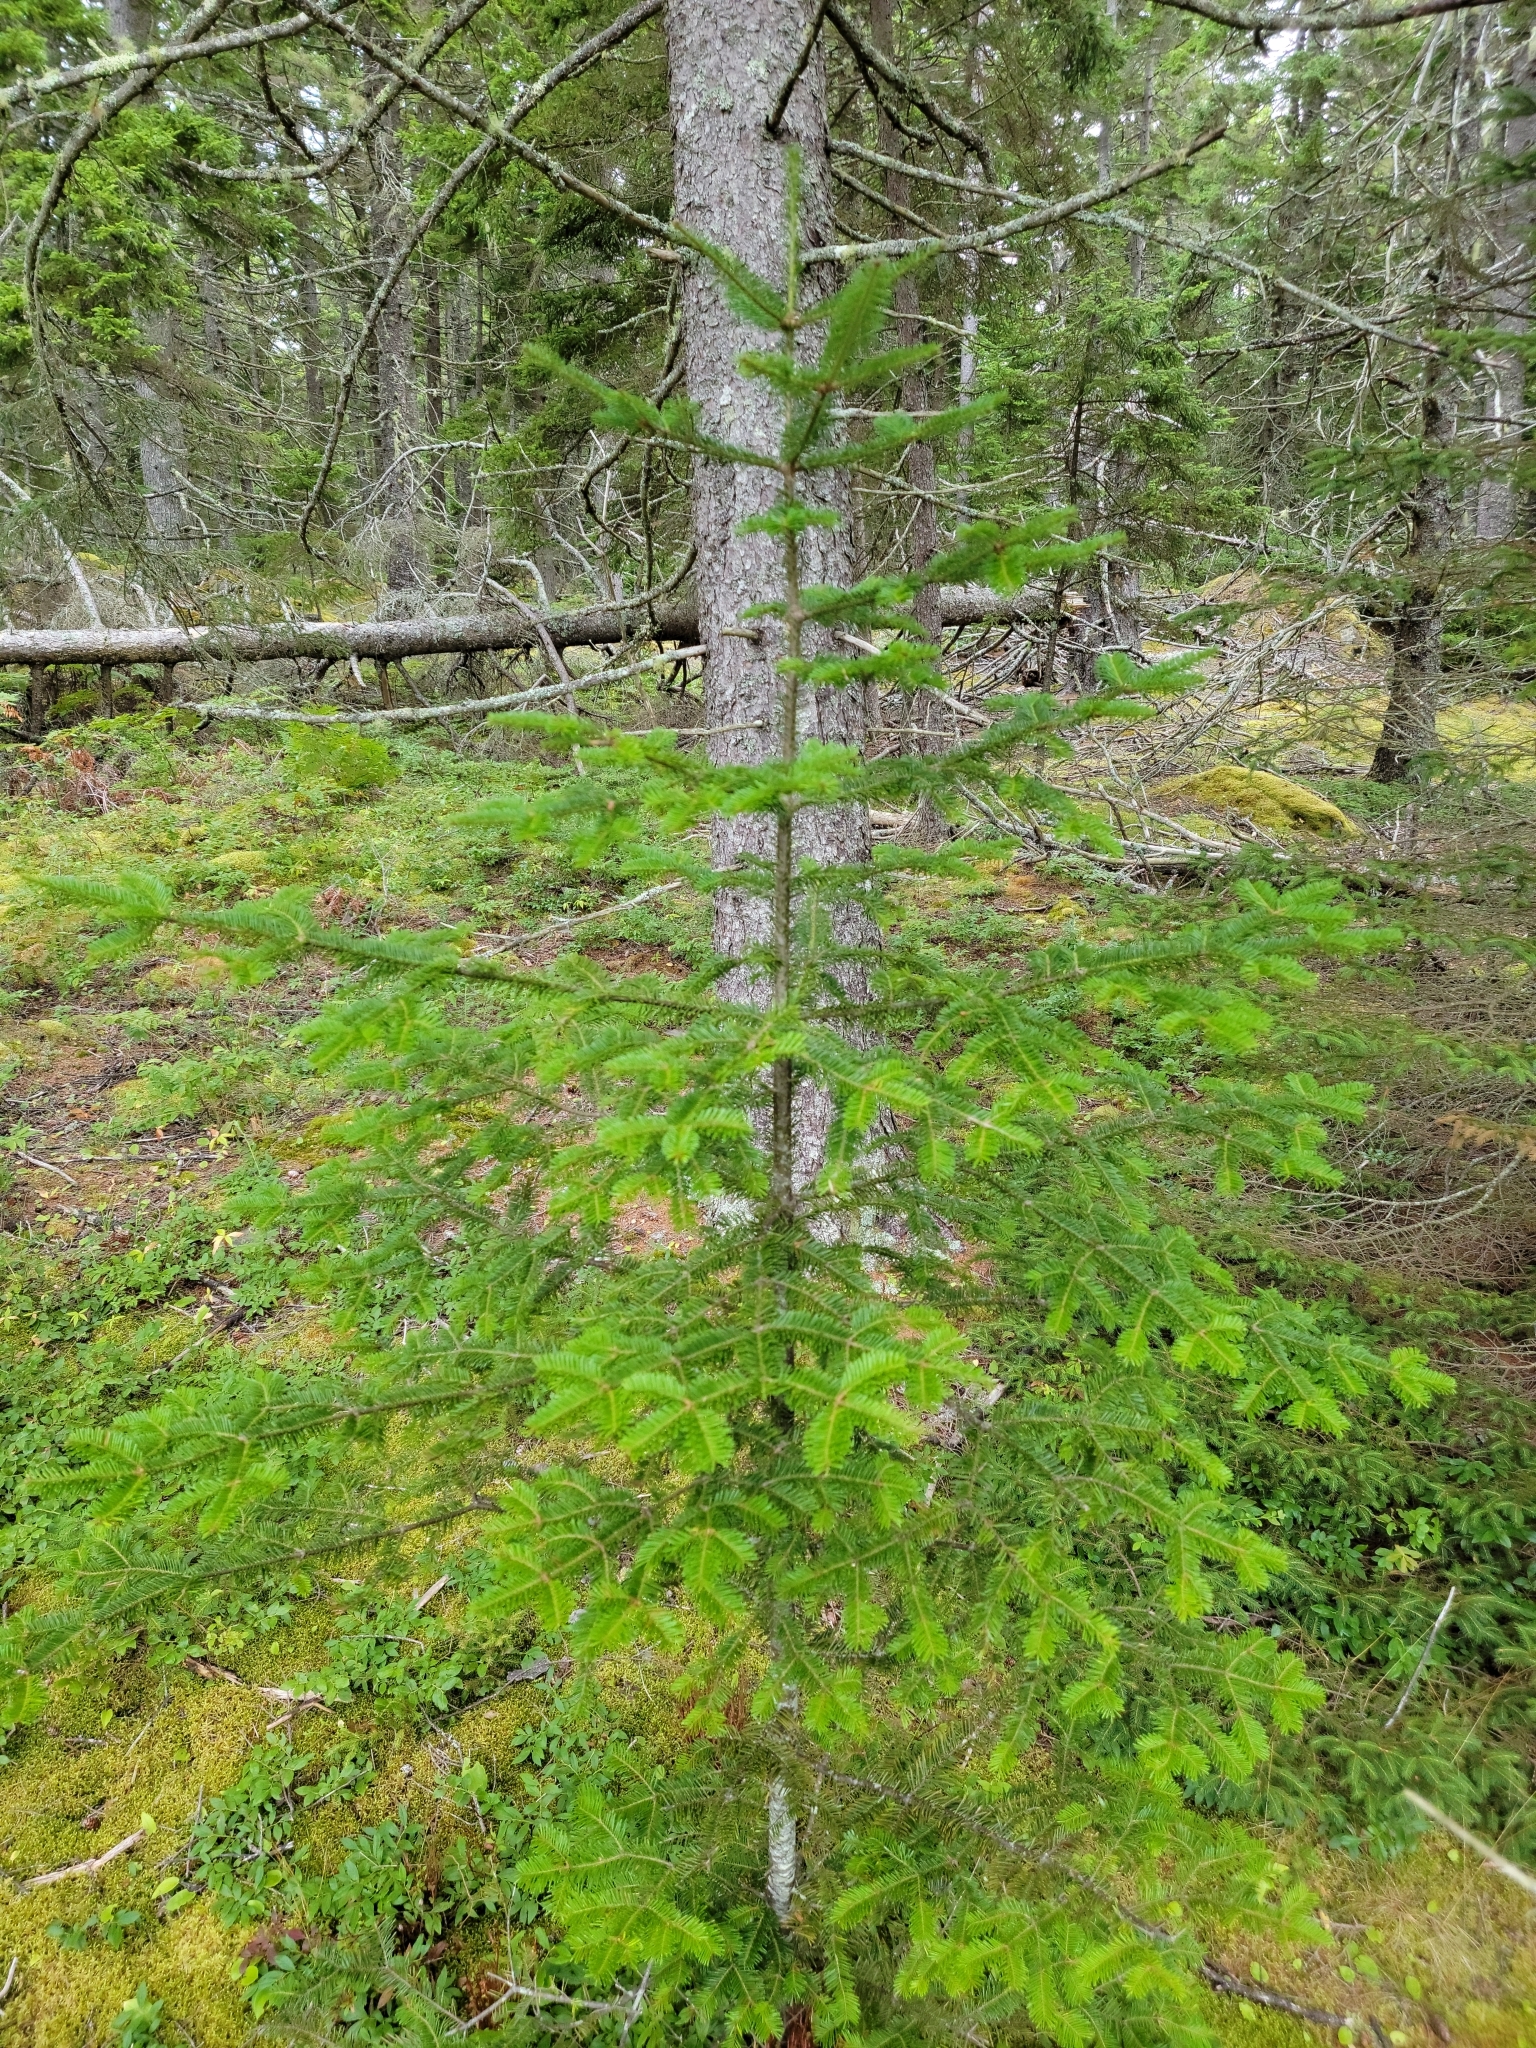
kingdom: Plantae
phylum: Tracheophyta
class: Pinopsida
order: Pinales
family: Pinaceae
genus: Abies
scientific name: Abies balsamea
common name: Balsam fir
